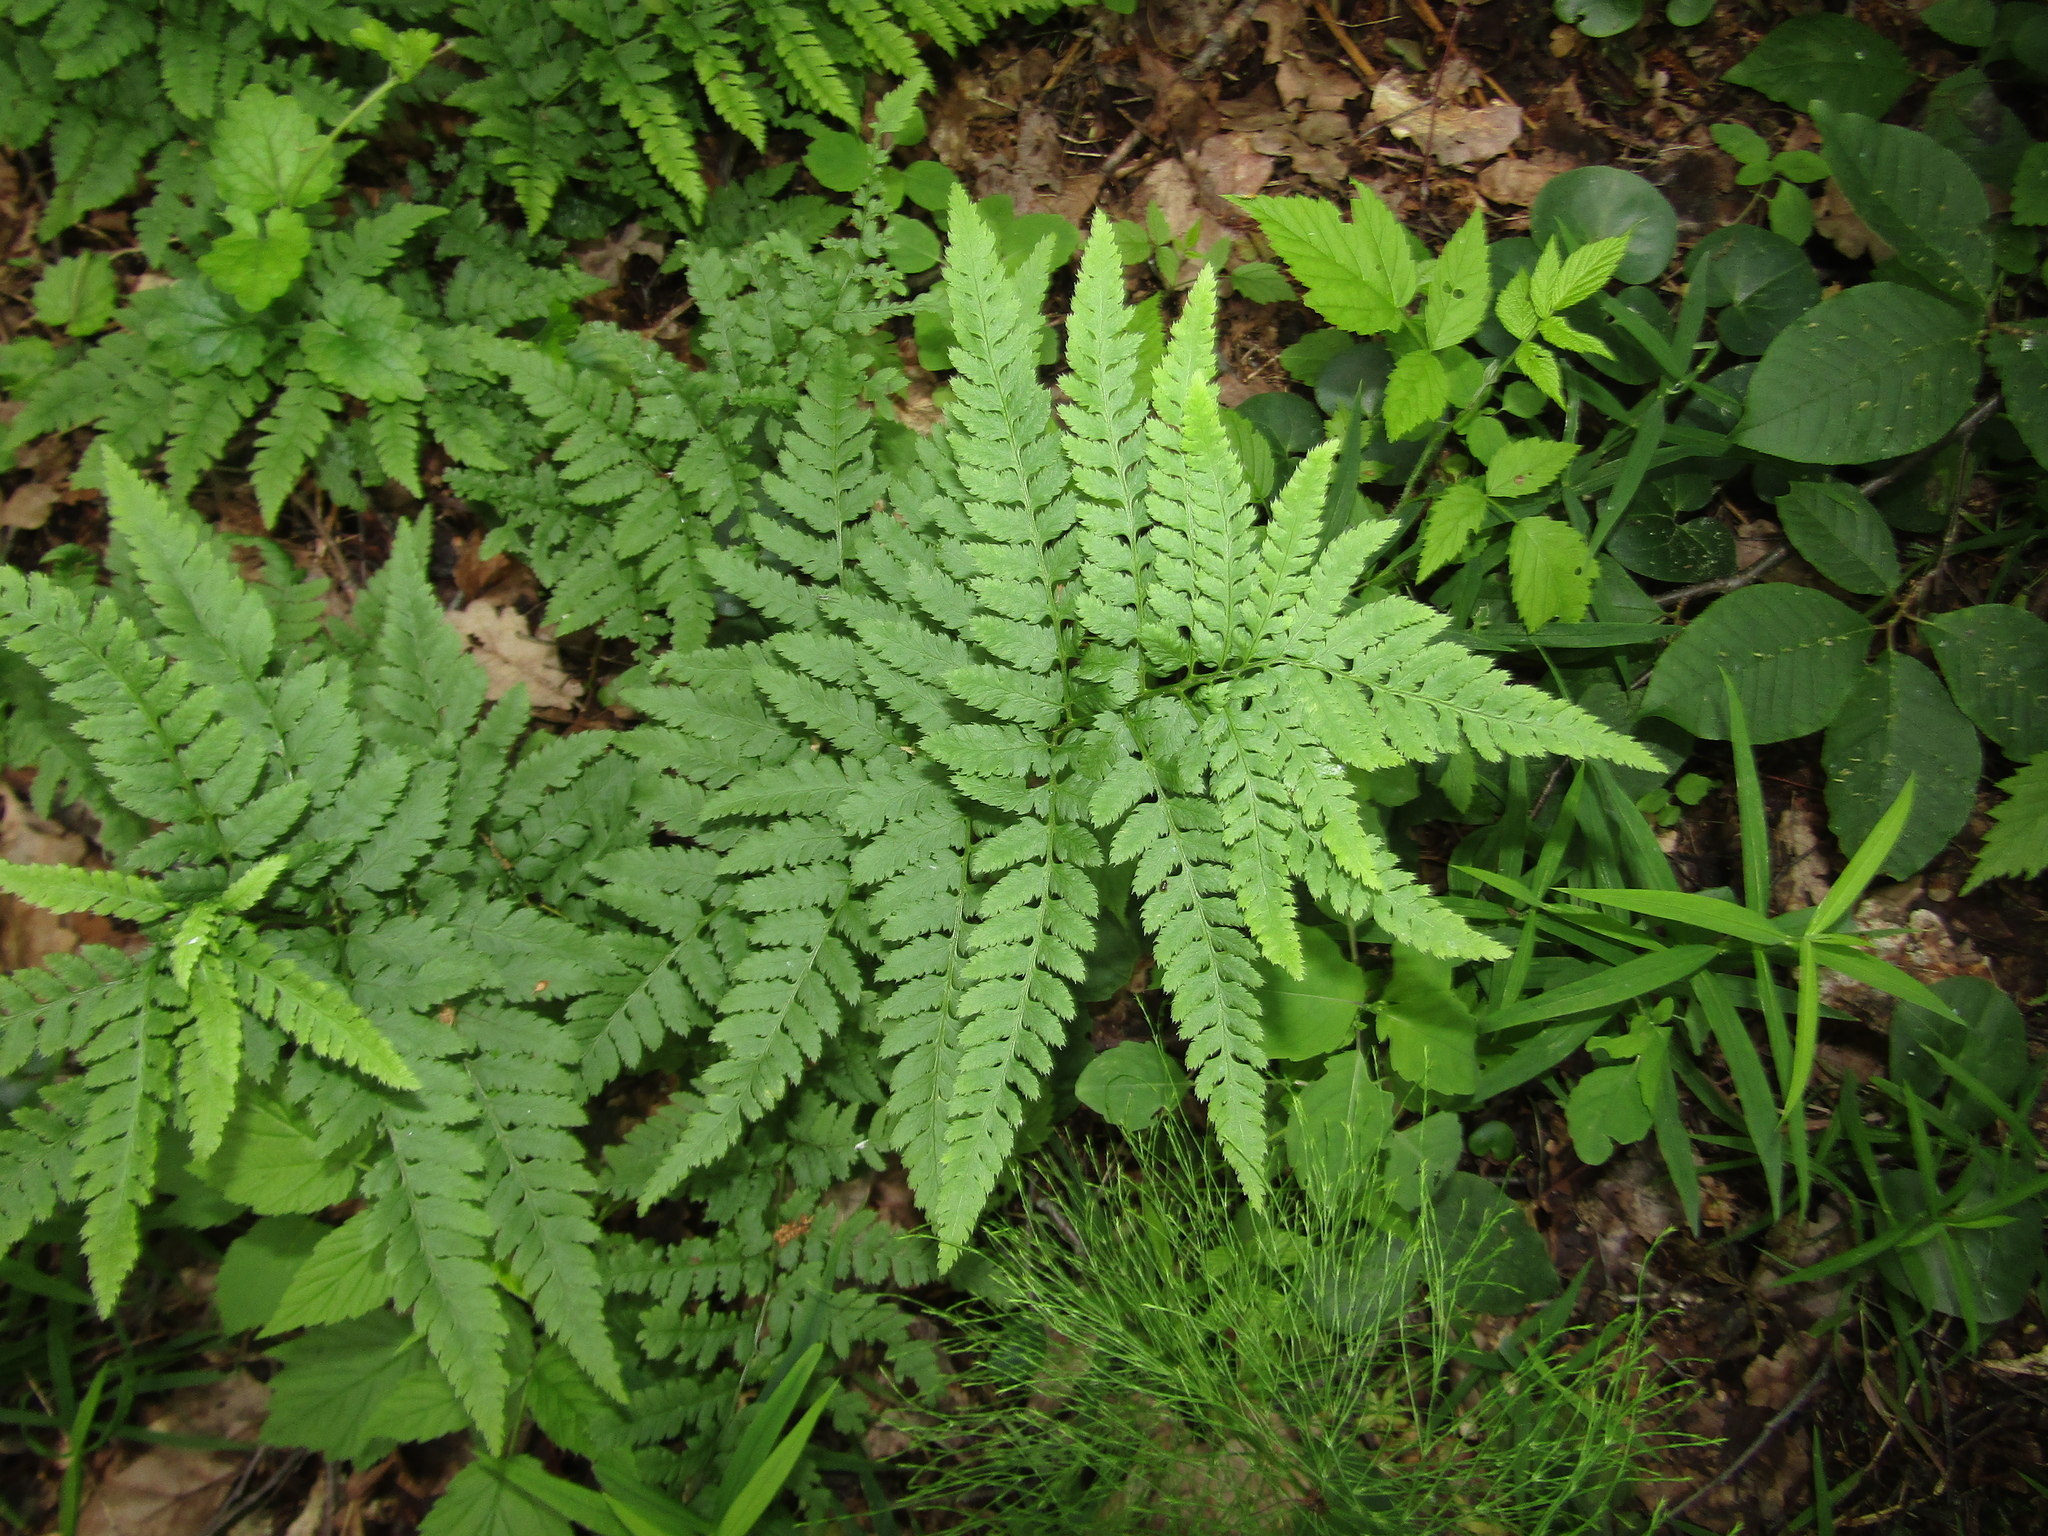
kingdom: Plantae
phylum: Tracheophyta
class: Polypodiopsida
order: Polypodiales
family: Dryopteridaceae
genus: Dryopteris
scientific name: Dryopteris carthusiana
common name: Narrow buckler-fern
